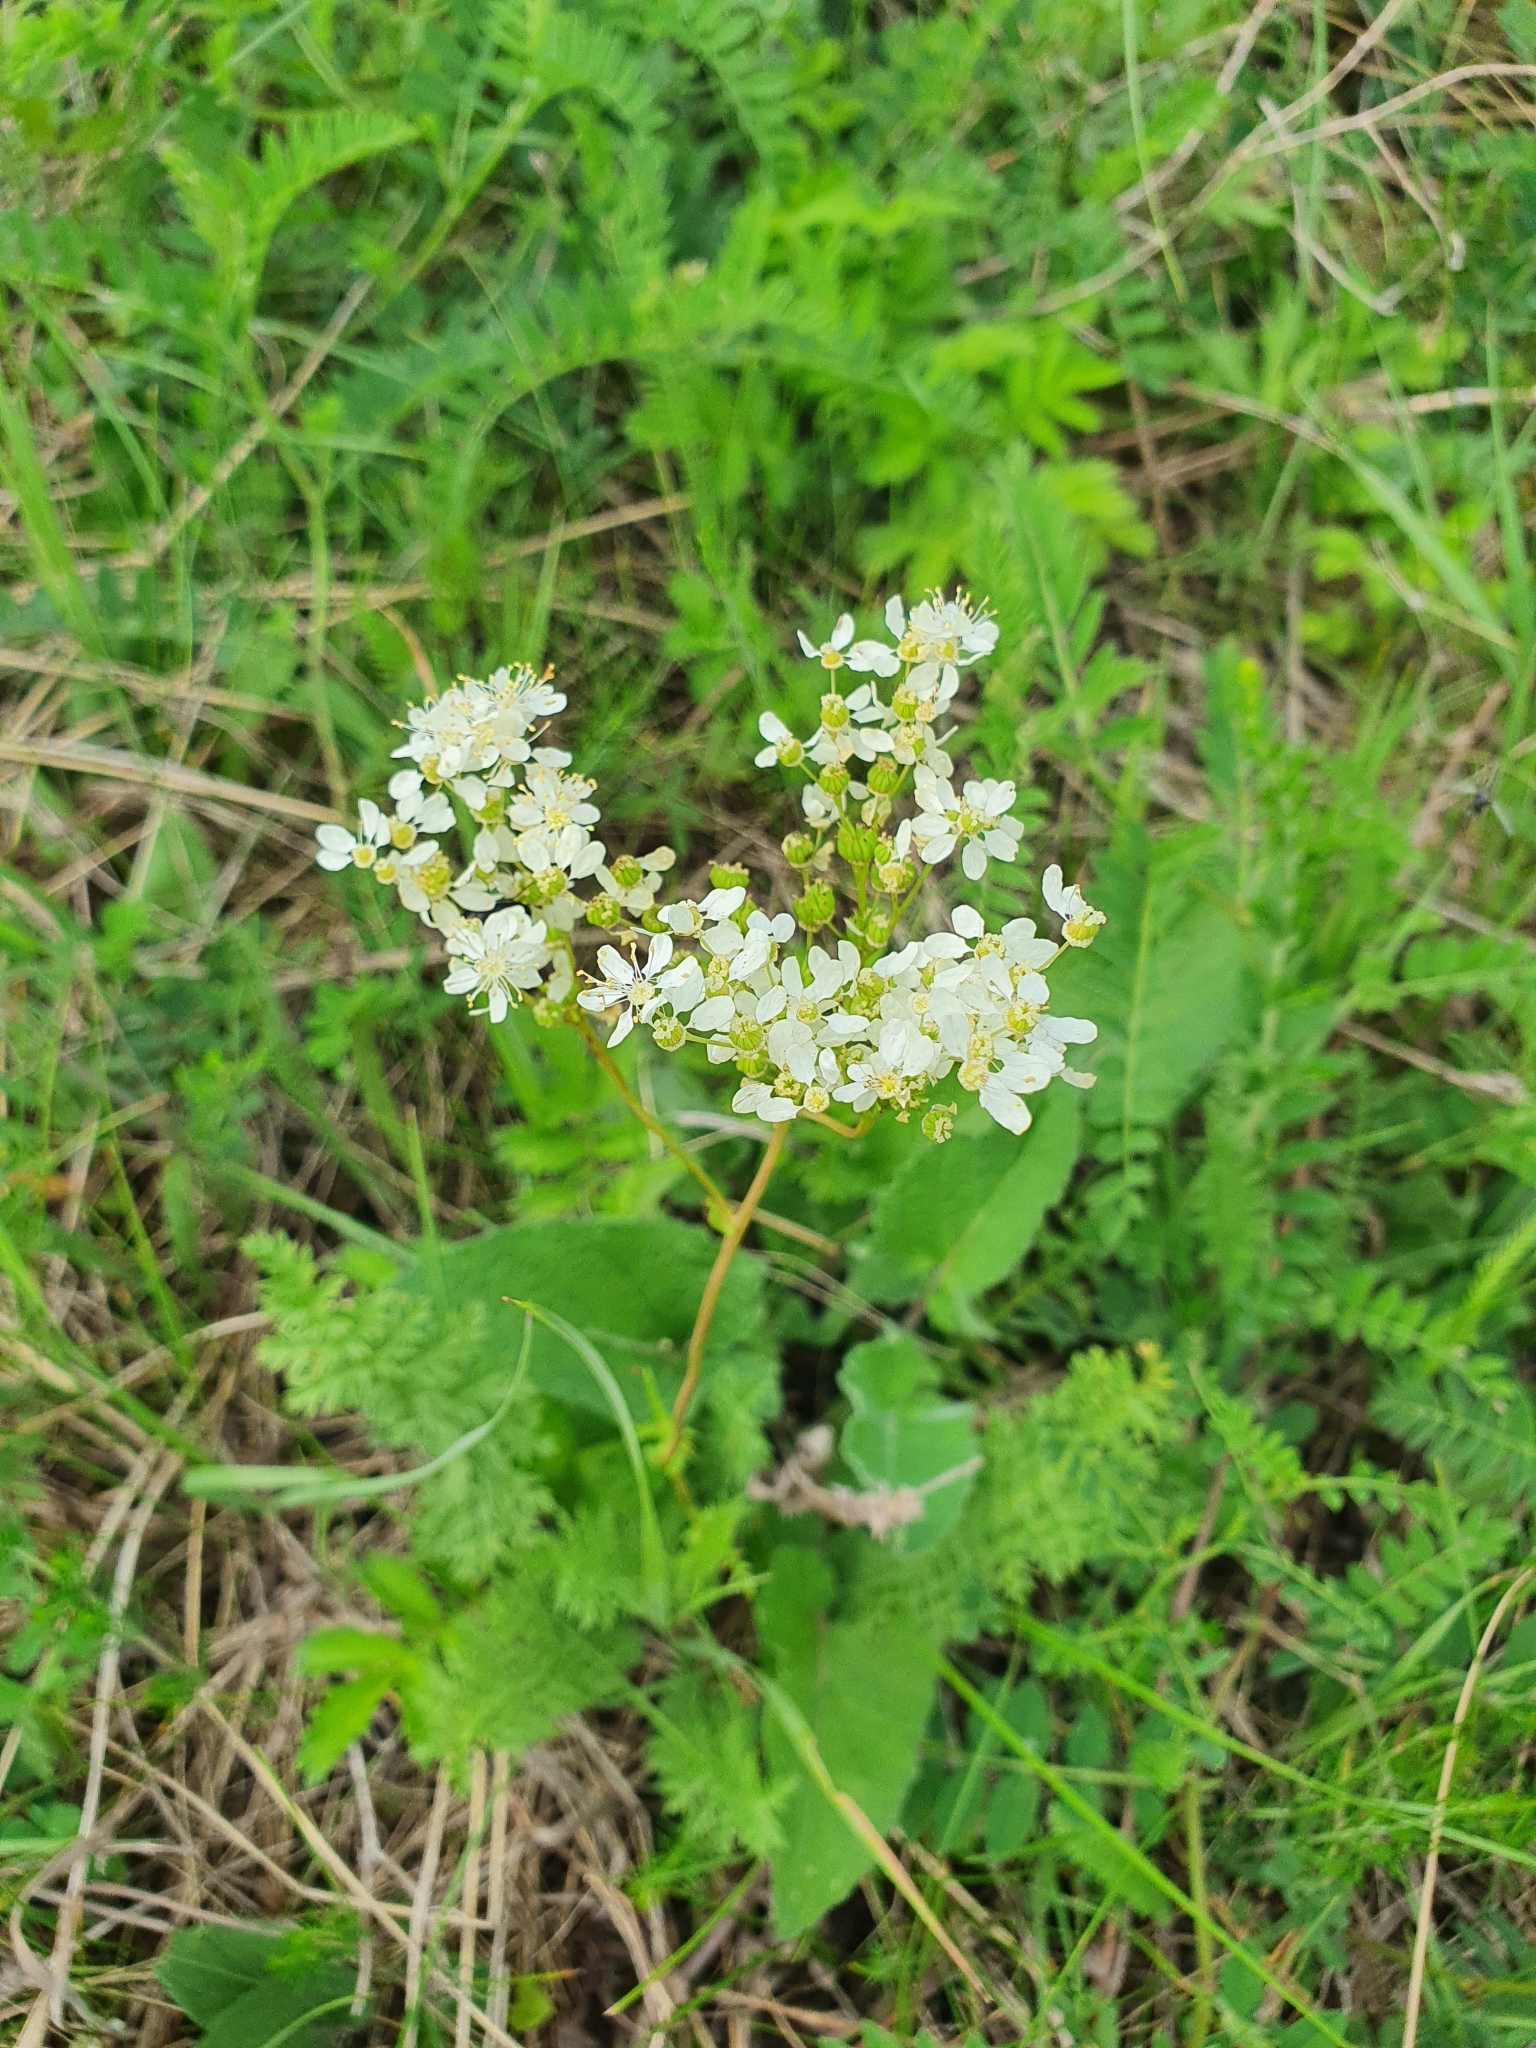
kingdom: Plantae
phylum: Tracheophyta
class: Magnoliopsida
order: Rosales
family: Rosaceae
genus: Filipendula
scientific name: Filipendula vulgaris
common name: Dropwort
